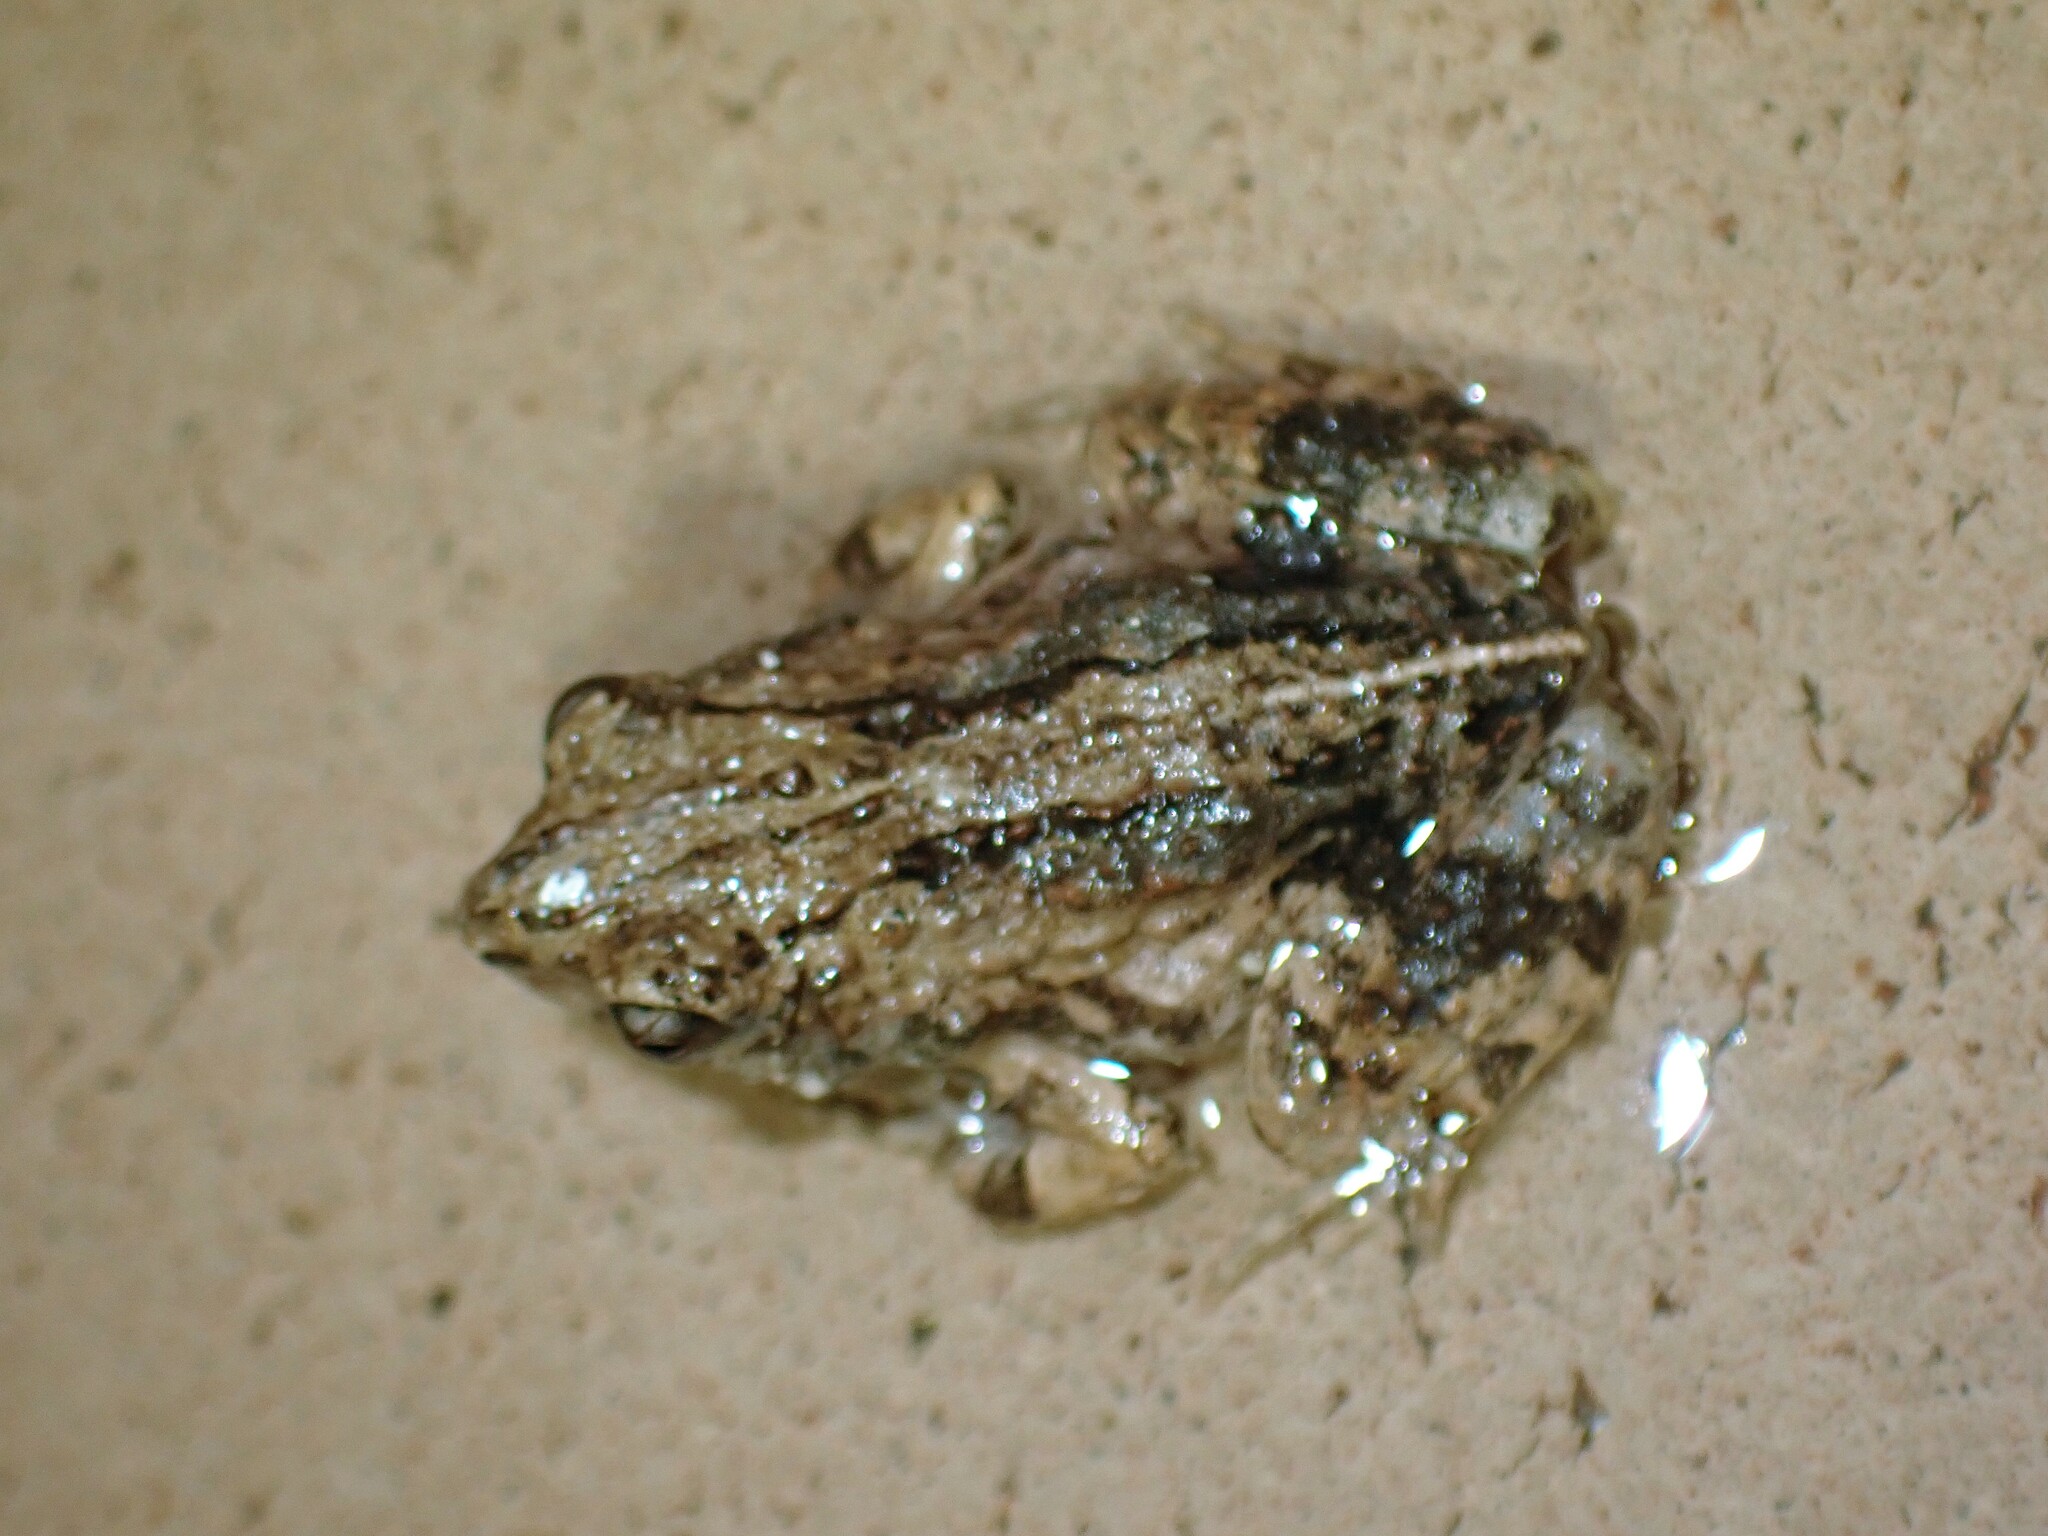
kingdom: Animalia
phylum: Chordata
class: Amphibia
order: Anura
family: Leptodactylidae
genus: Engystomops
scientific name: Engystomops pustulosus
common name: Tungara frog
